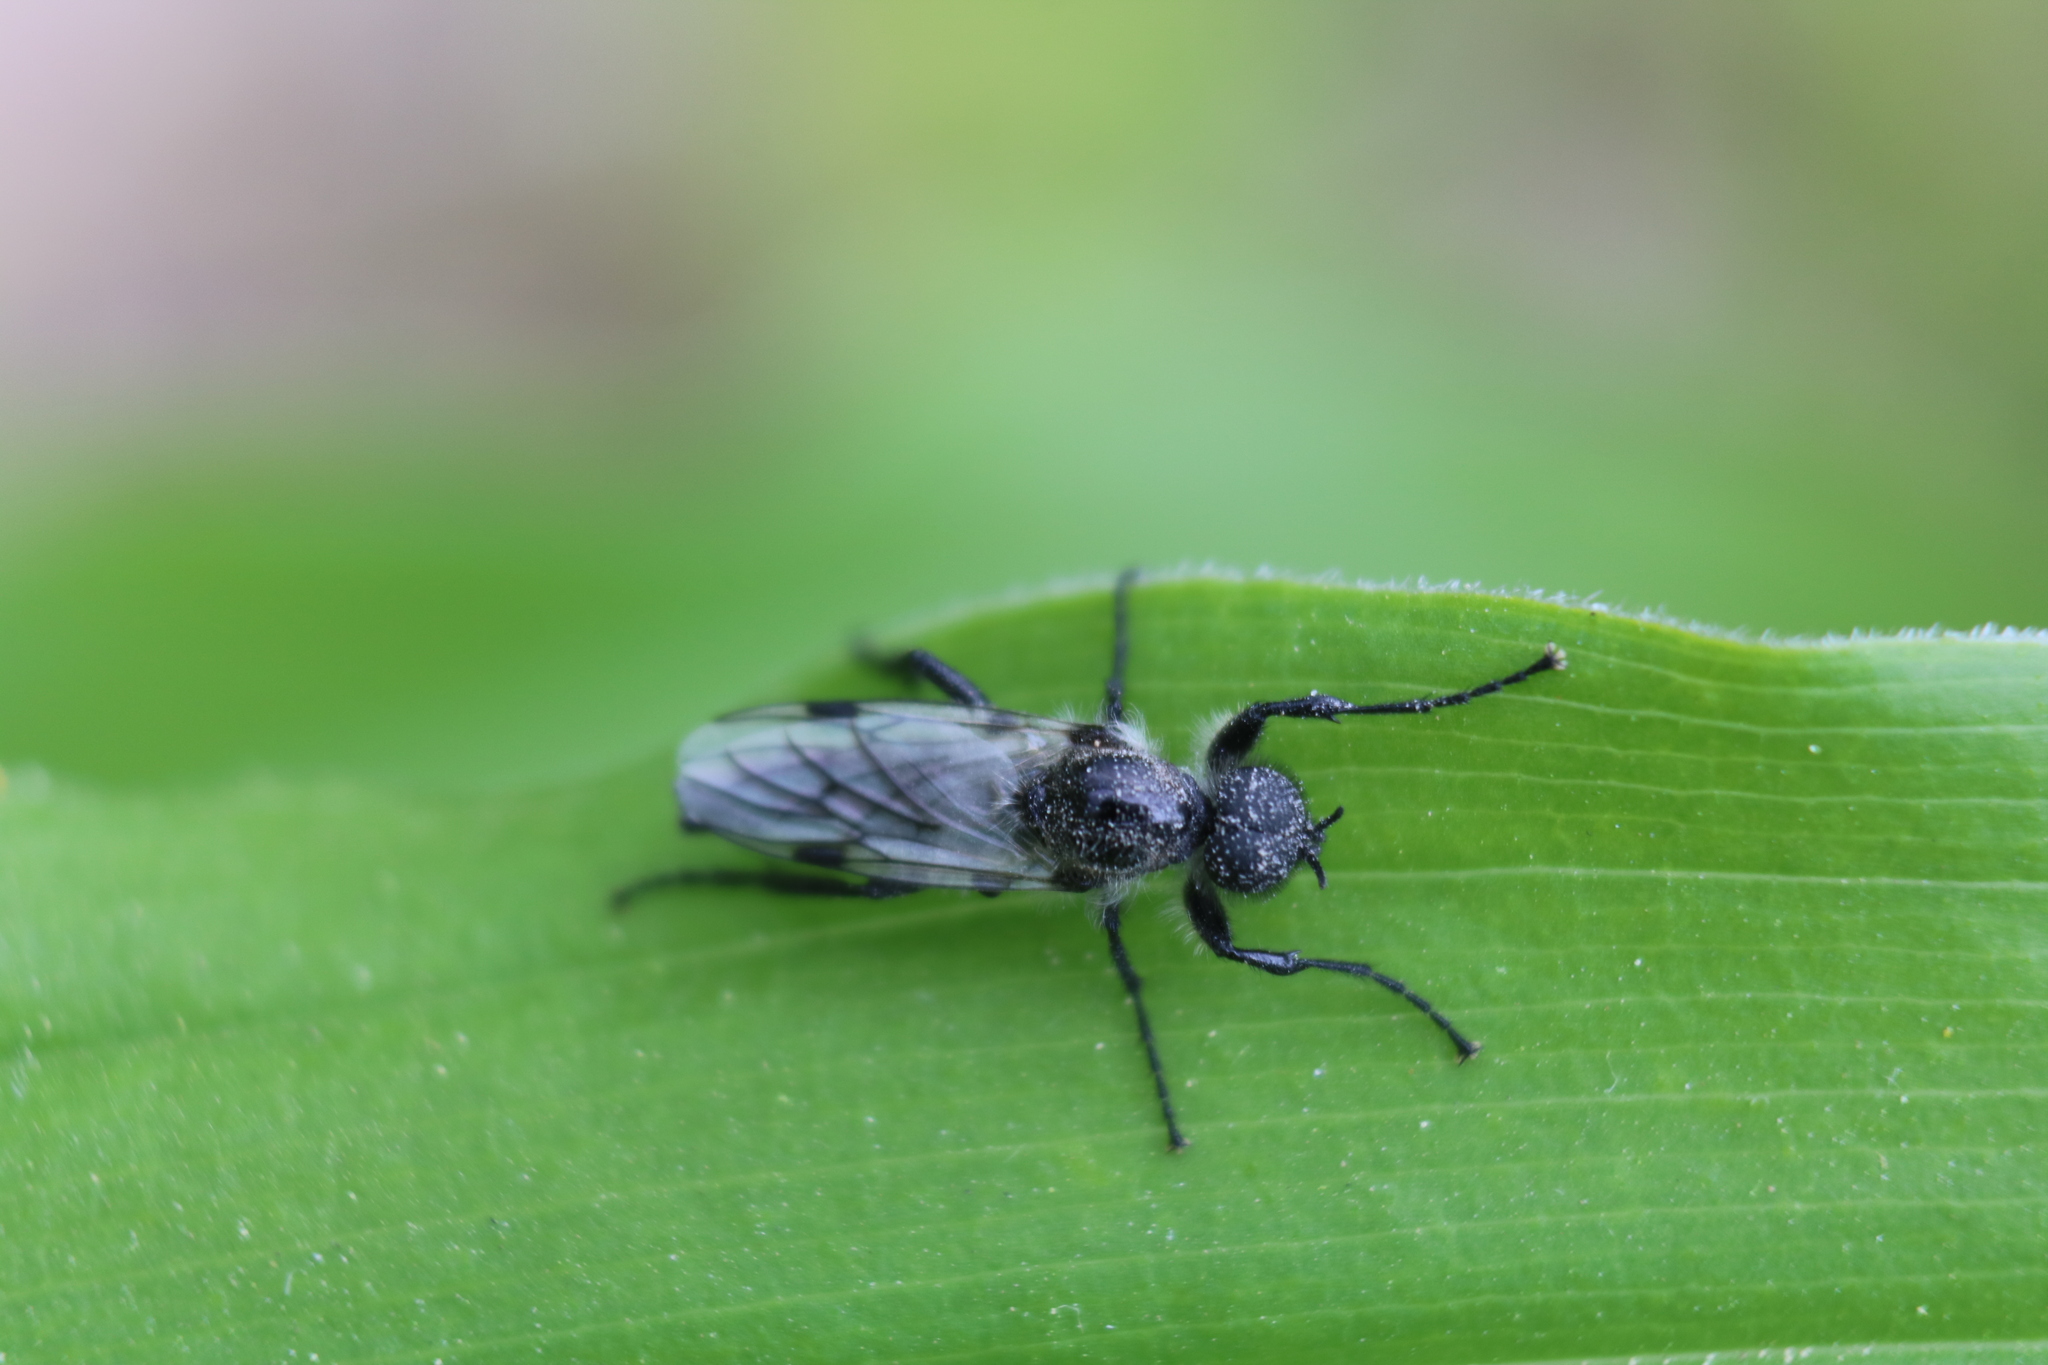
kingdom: Animalia
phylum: Arthropoda
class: Insecta
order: Diptera
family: Bibionidae
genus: Bibio
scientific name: Bibio albipennis
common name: White-winged march fly
